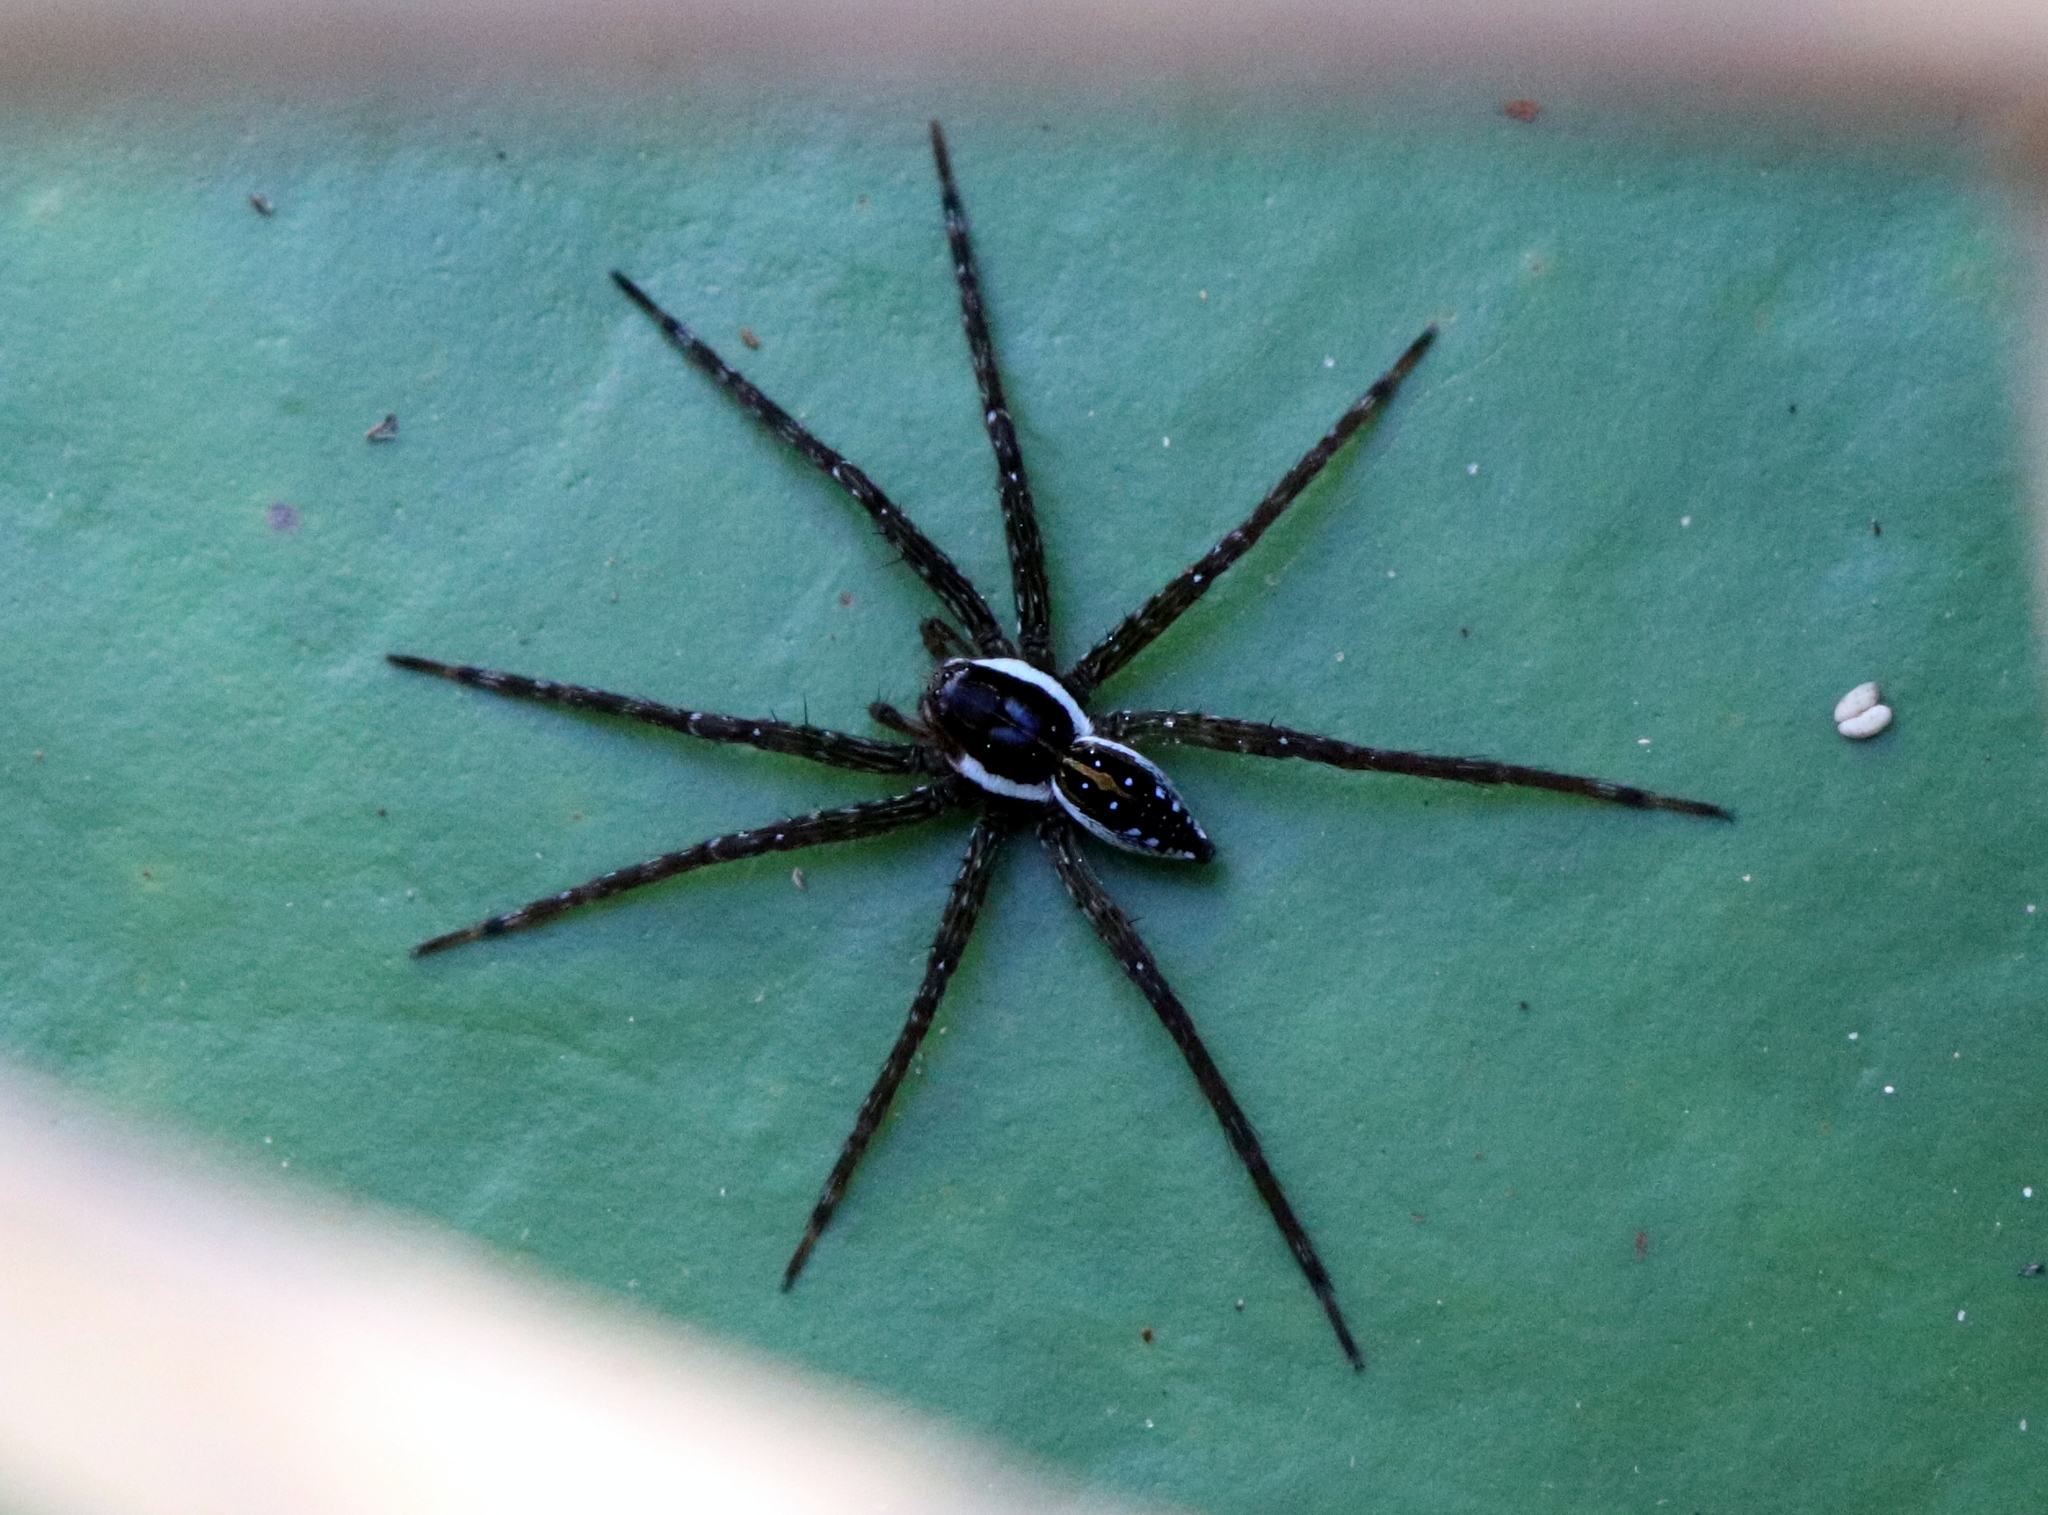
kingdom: Animalia
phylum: Arthropoda
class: Arachnida
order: Araneae
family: Pisauridae
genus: Dolomedes
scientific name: Dolomedes triton
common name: Six-spotted fishing spider
